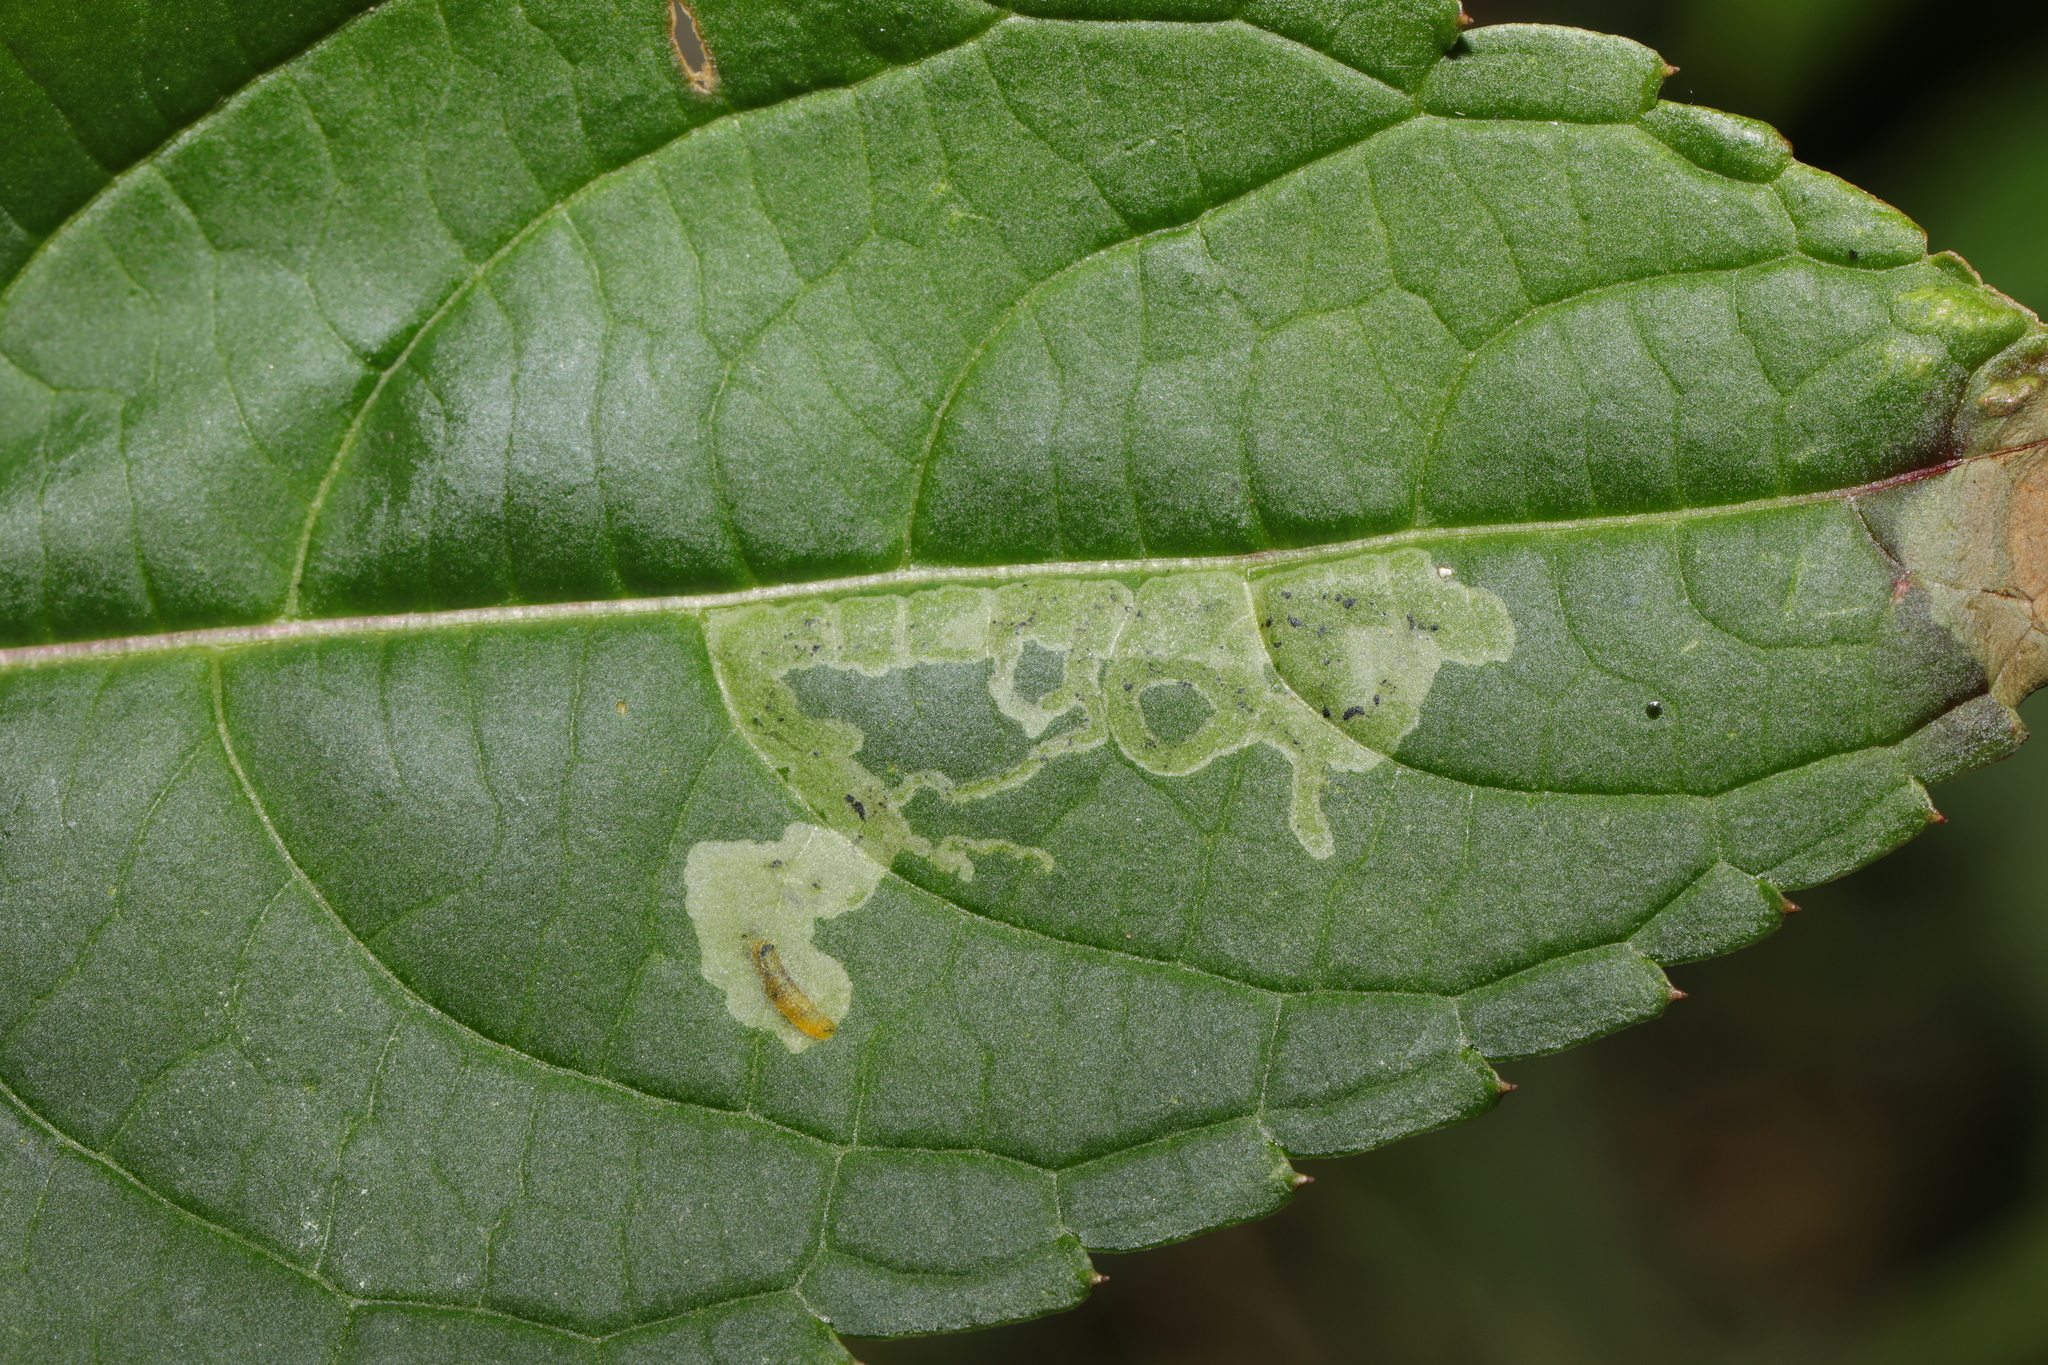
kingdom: Animalia
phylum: Arthropoda
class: Insecta
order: Diptera
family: Agromyzidae
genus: Phytoliriomyza
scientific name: Phytoliriomyza melampyga
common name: Jewelweed leaf-miner fly
